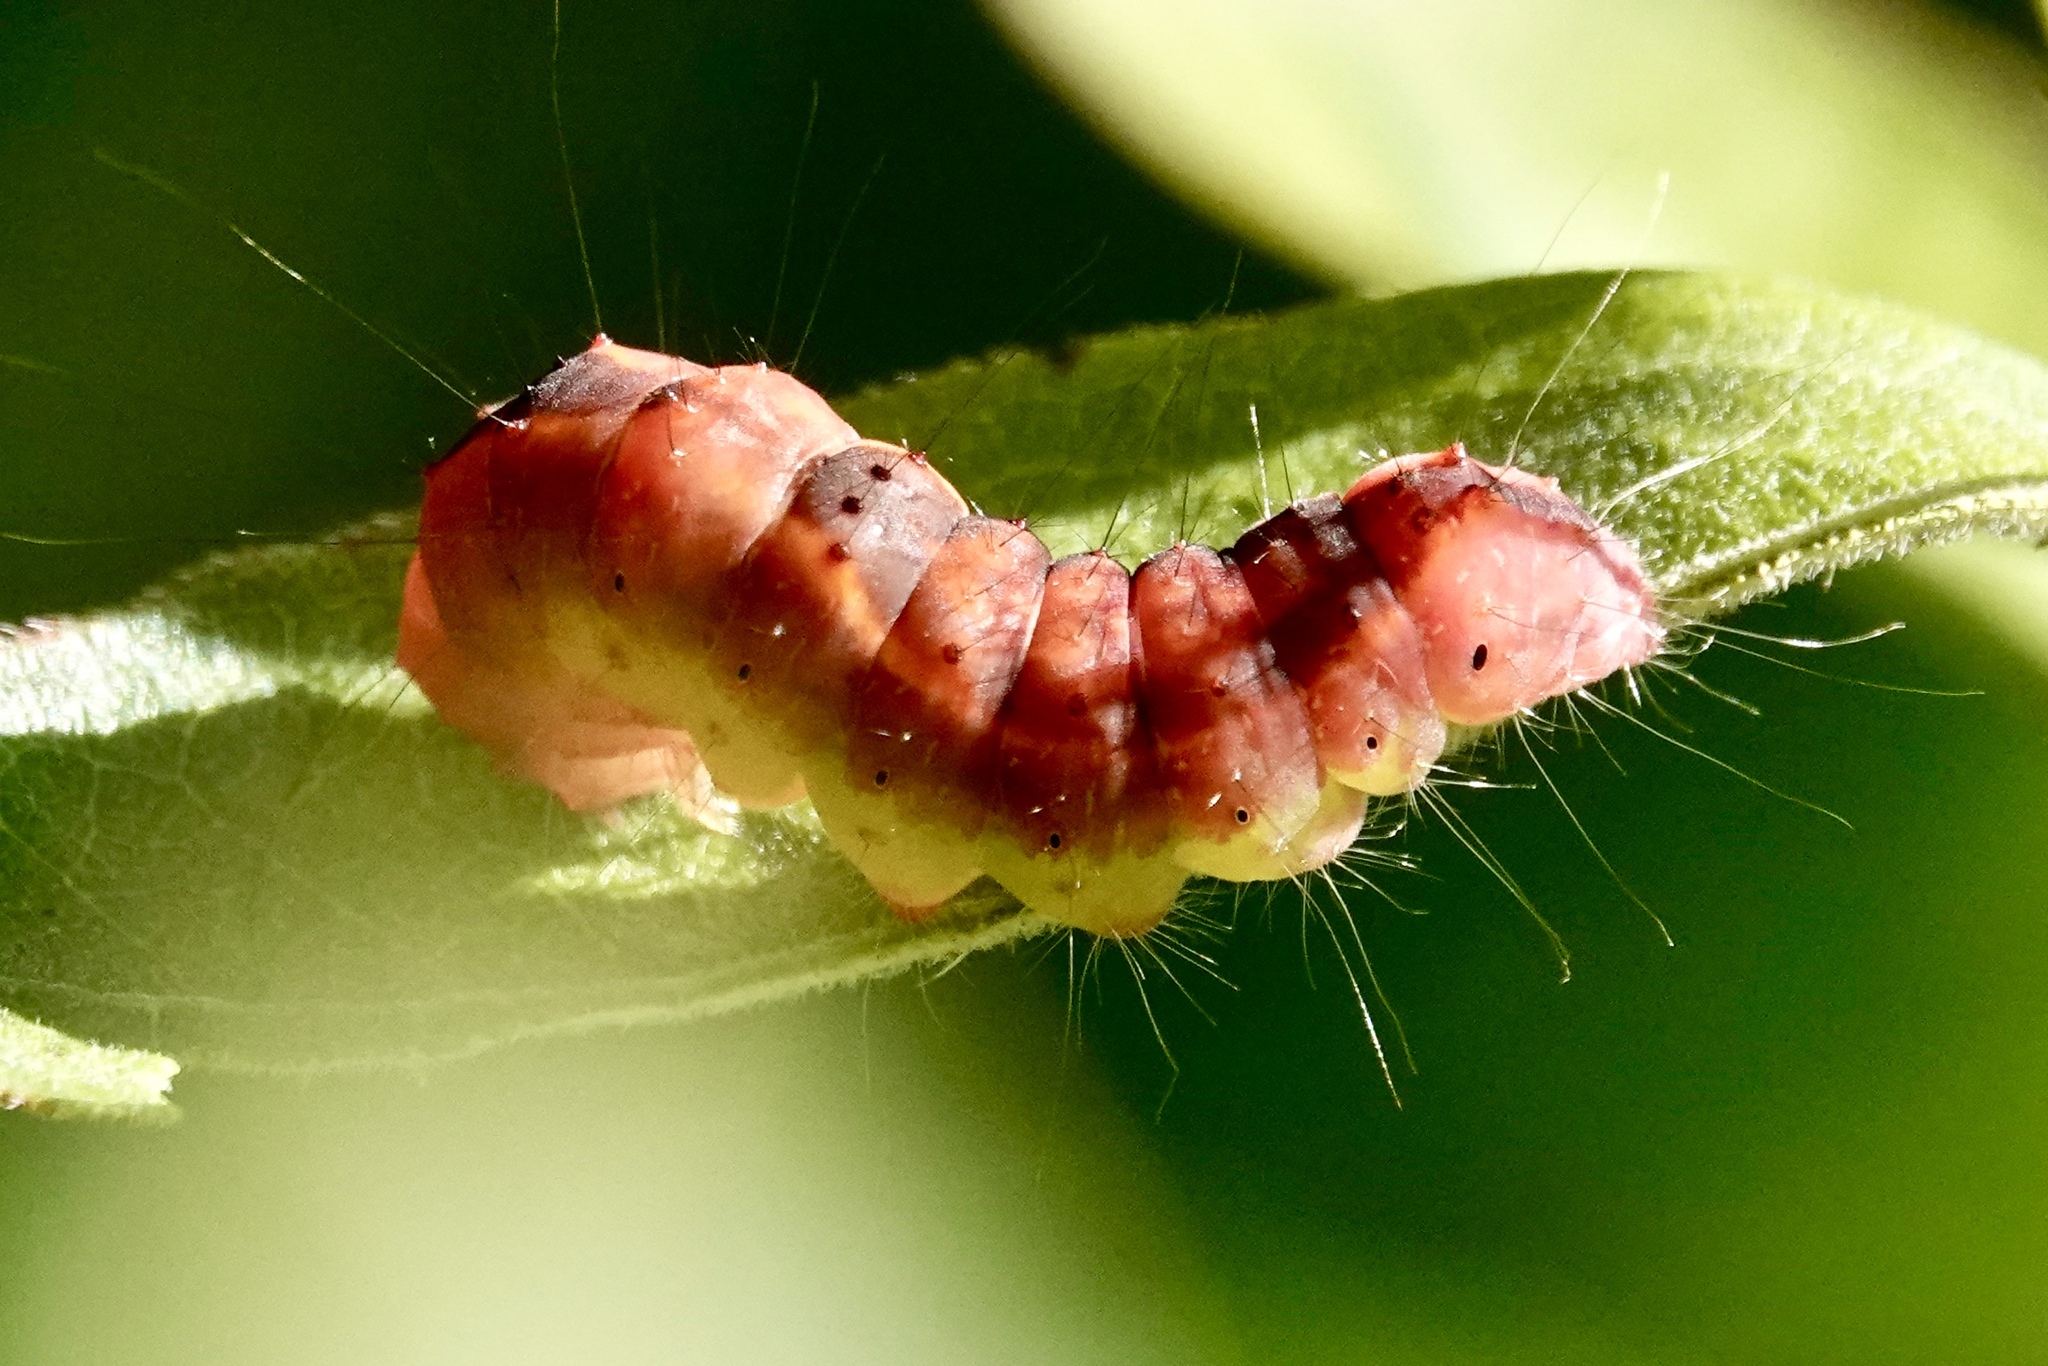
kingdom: Animalia
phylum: Arthropoda
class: Insecta
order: Lepidoptera
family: Noctuidae
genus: Acronicta
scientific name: Acronicta tritona
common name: Triton dagger
